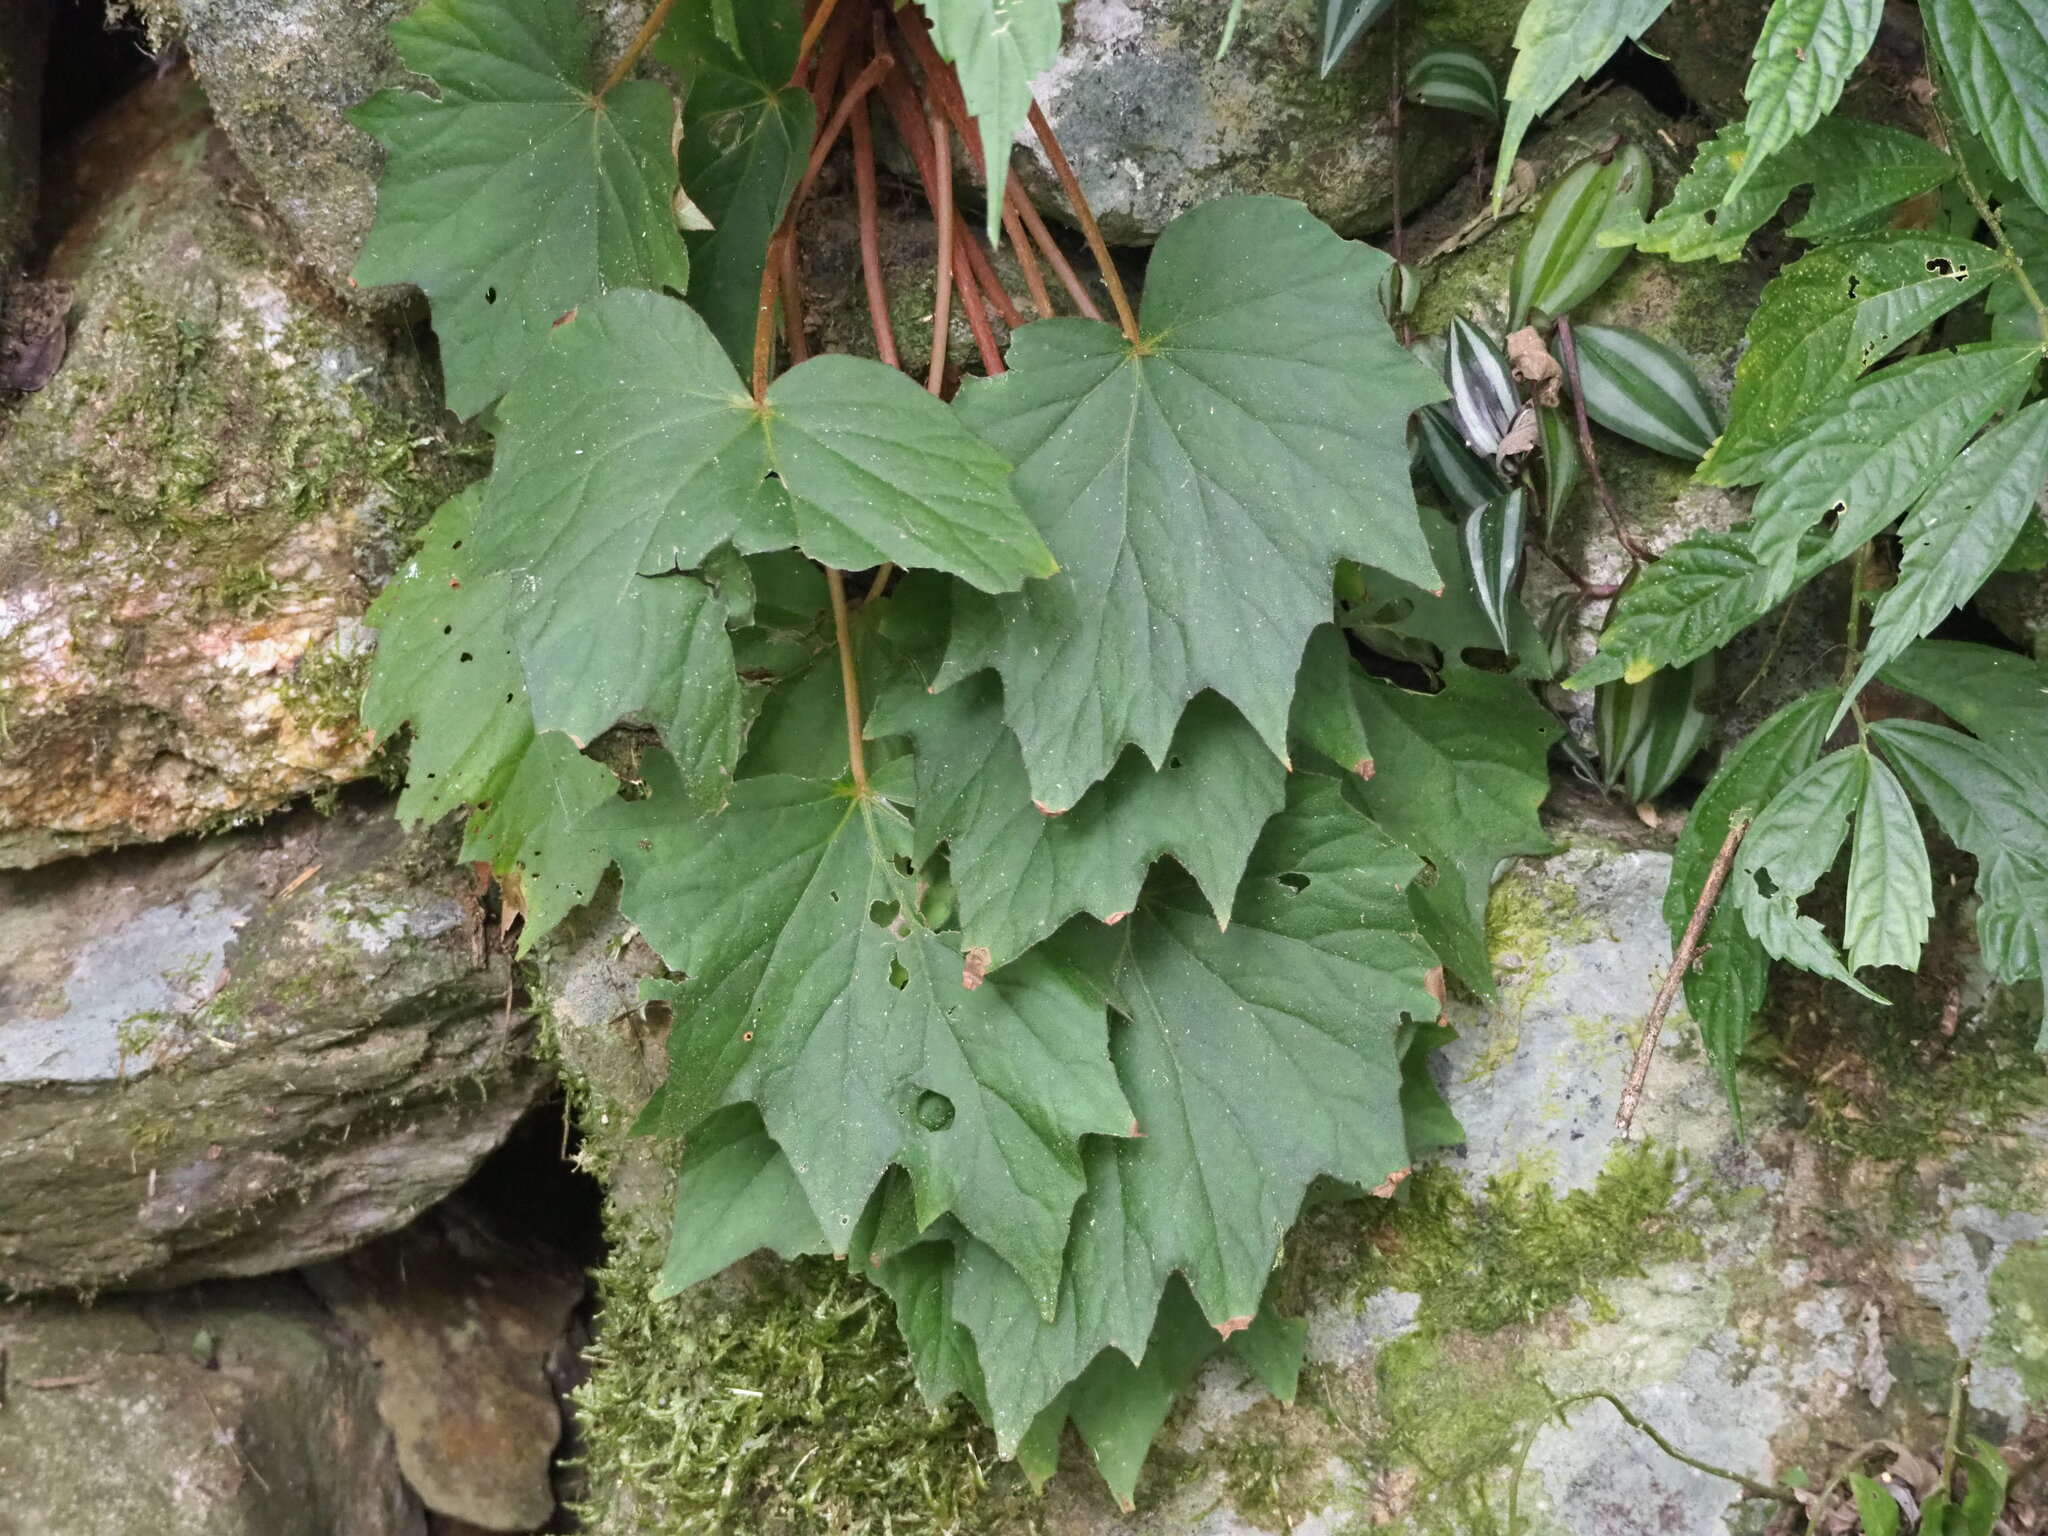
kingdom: Plantae
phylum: Tracheophyta
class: Magnoliopsida
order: Cucurbitales
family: Begoniaceae
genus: Begonia
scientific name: Begonia palmata
